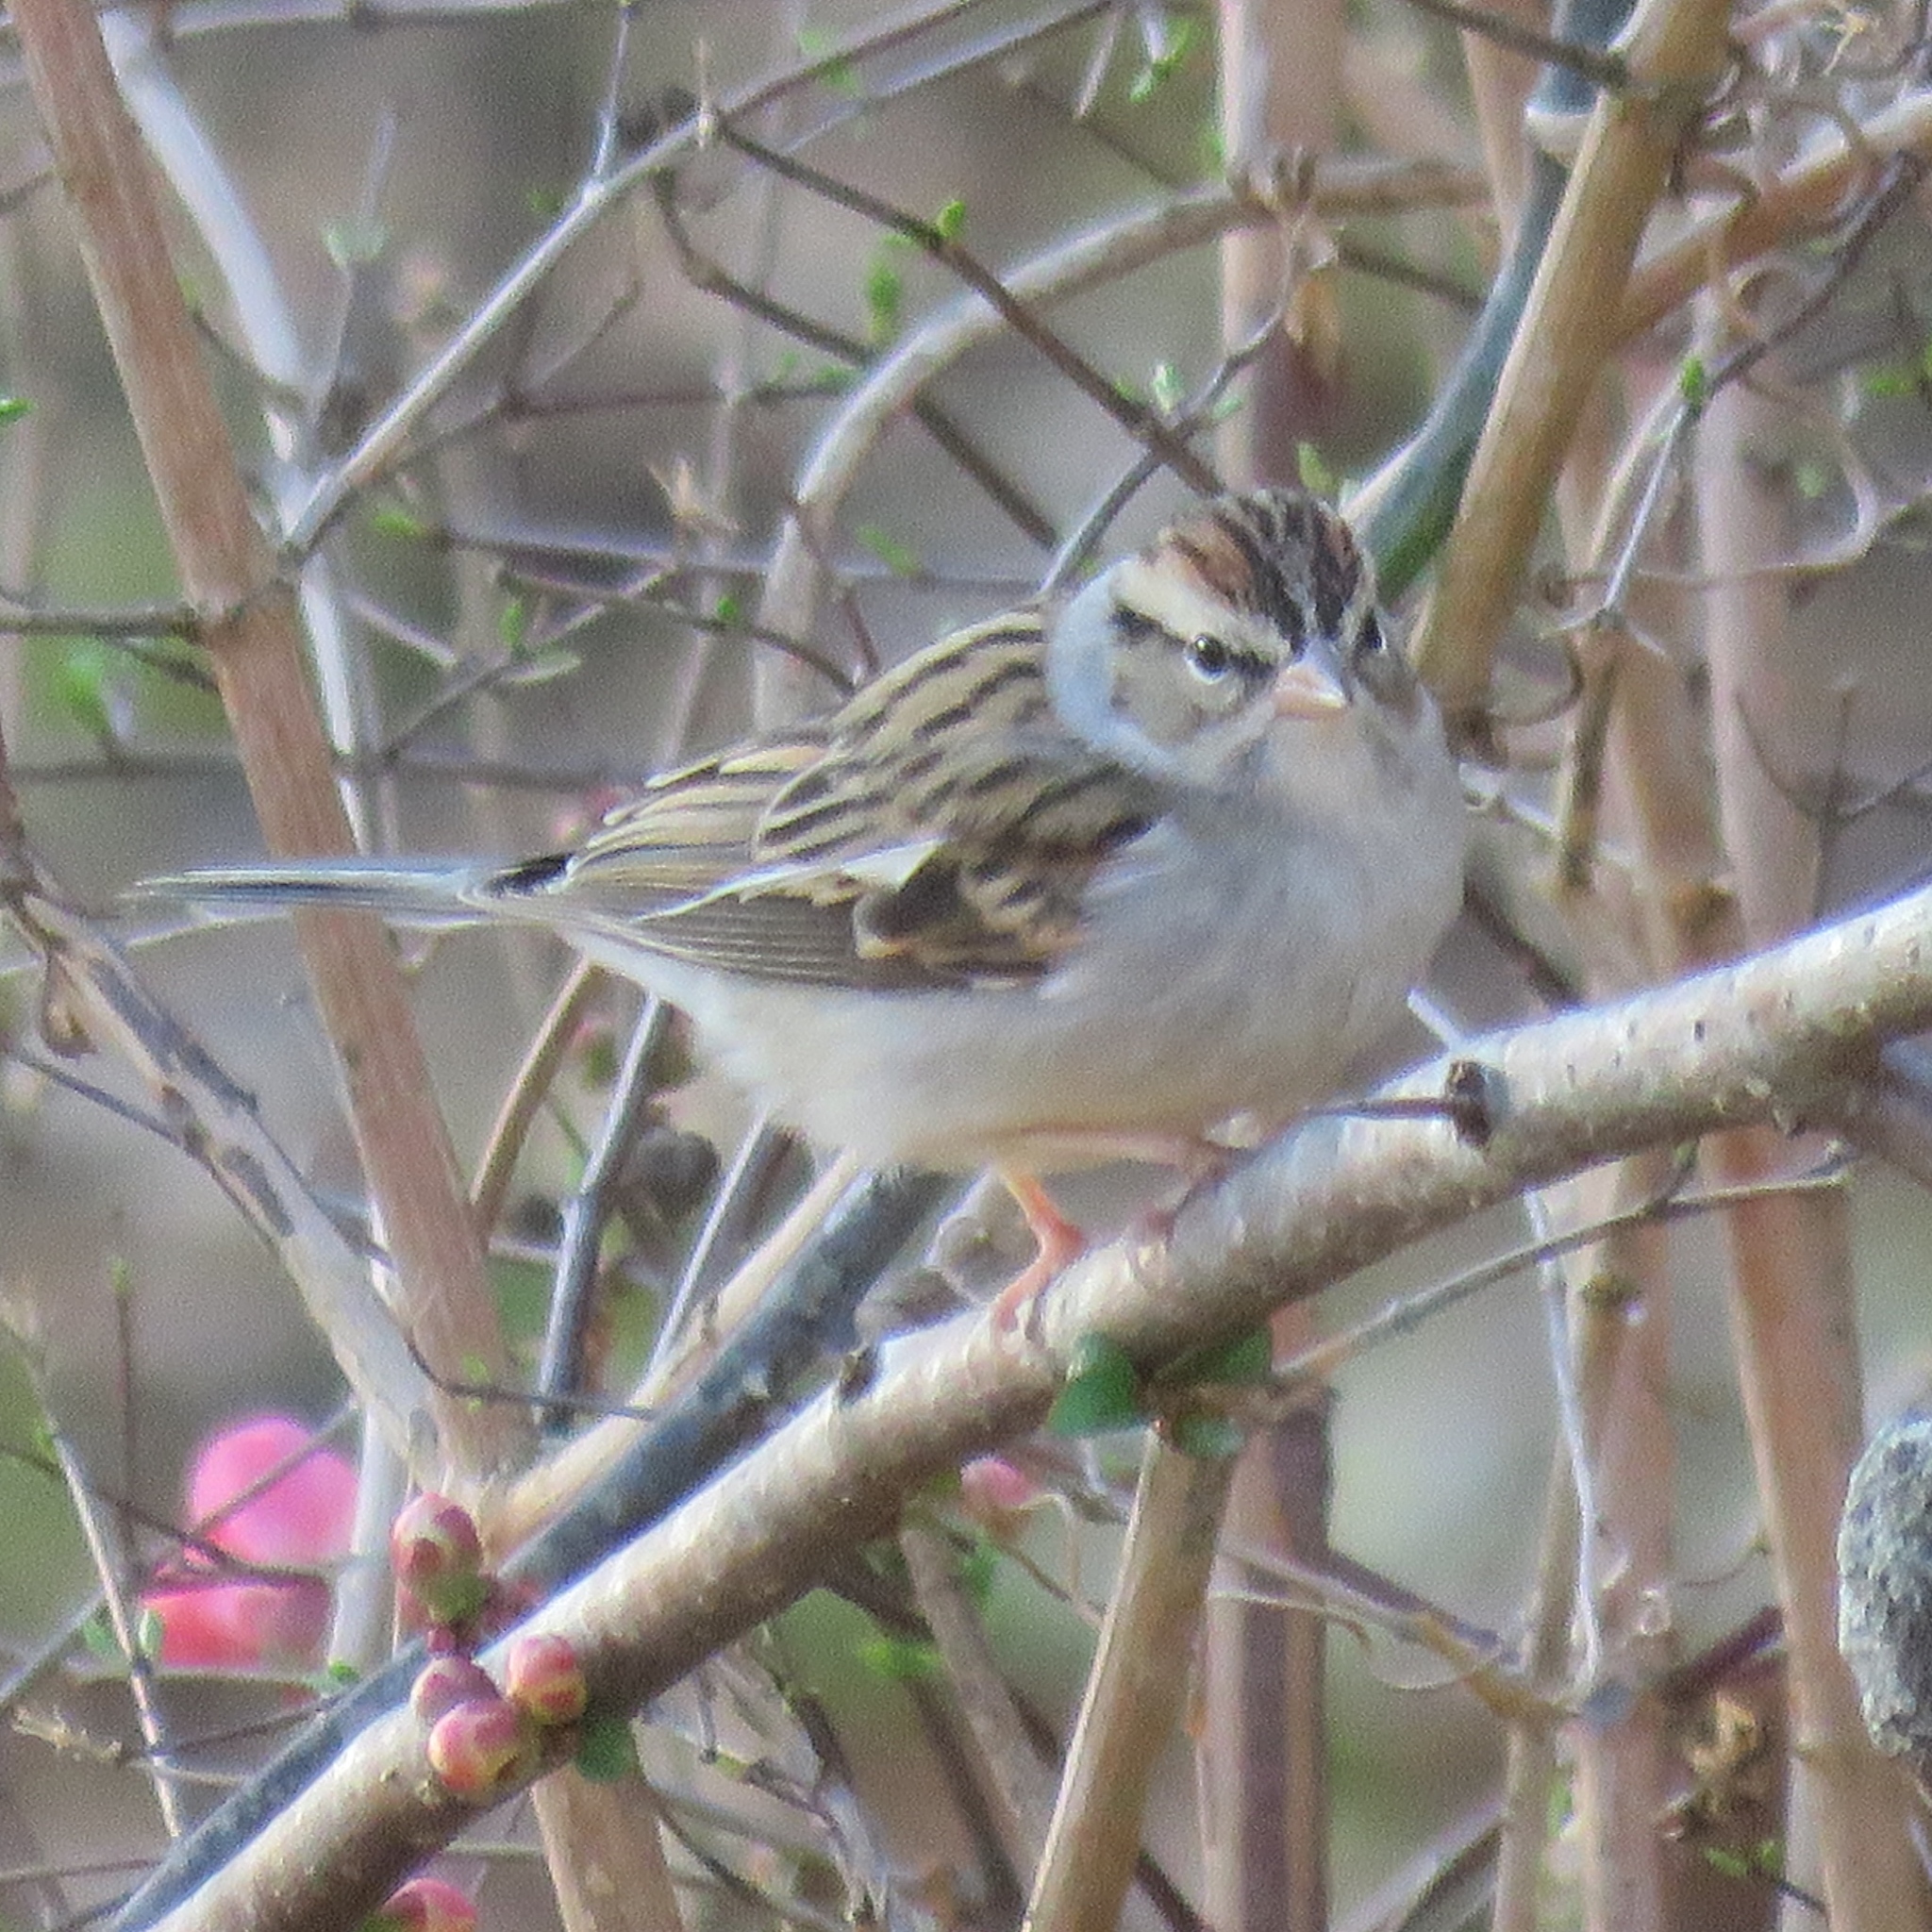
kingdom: Animalia
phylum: Chordata
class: Aves
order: Passeriformes
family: Passerellidae
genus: Spizella
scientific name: Spizella passerina
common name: Chipping sparrow
